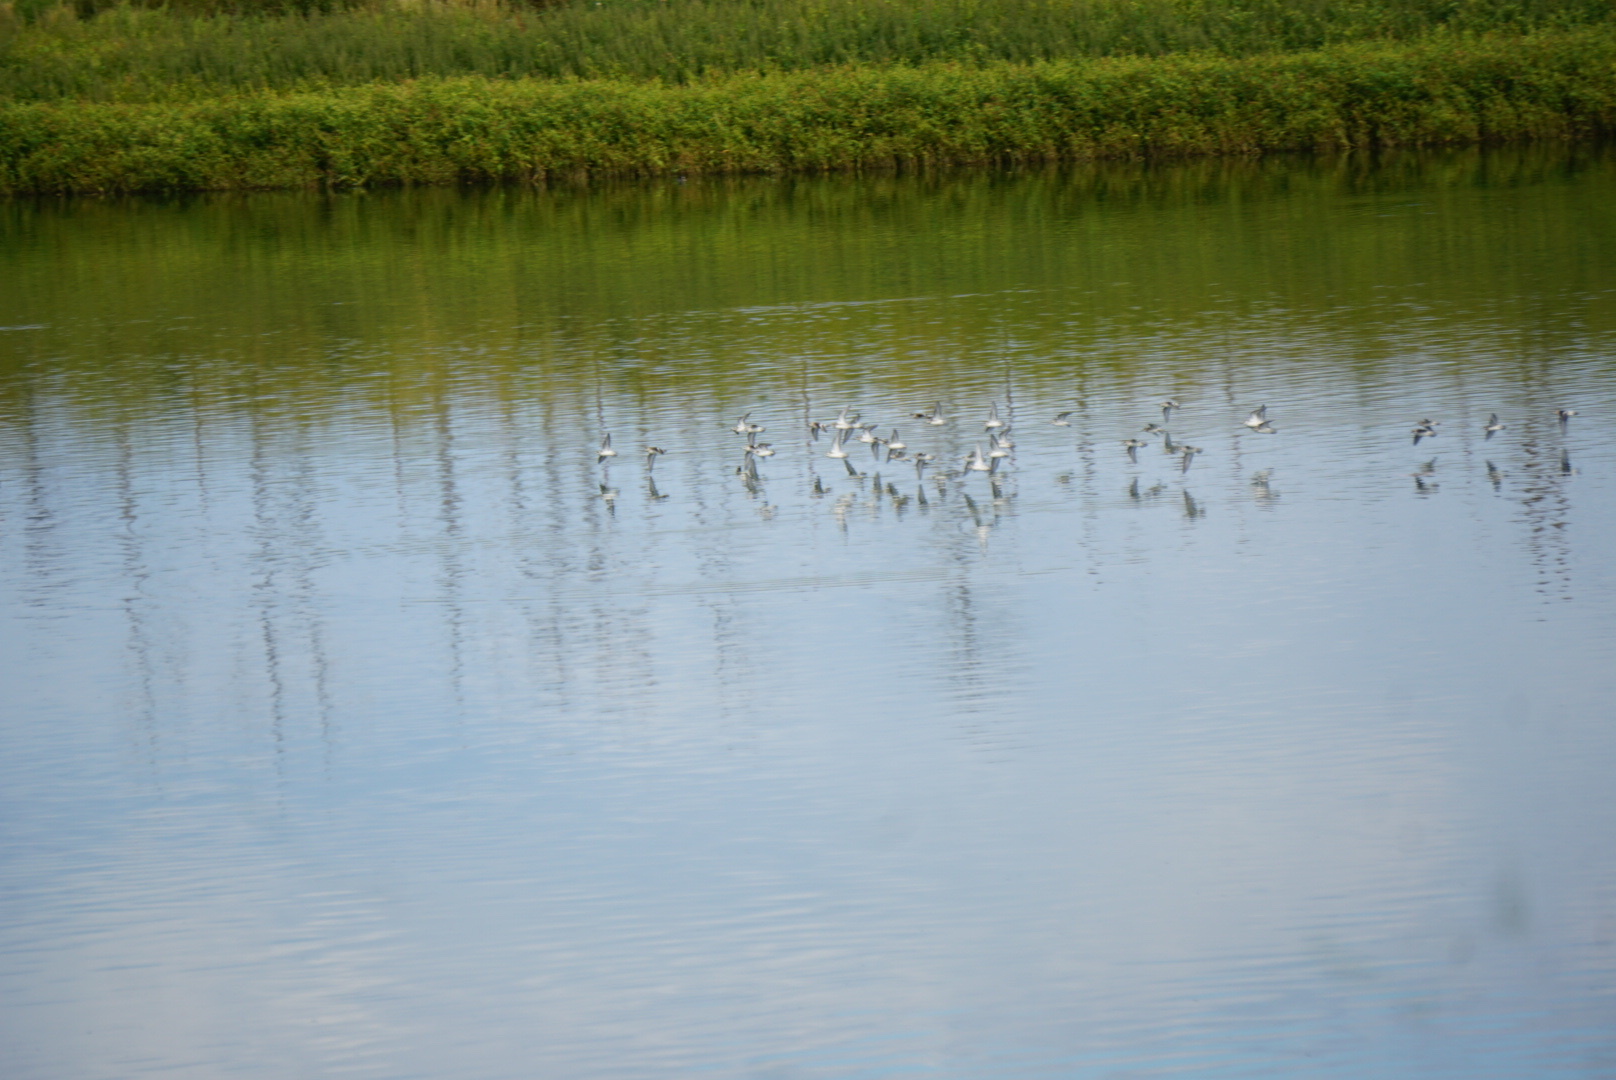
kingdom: Animalia
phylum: Chordata
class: Aves
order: Charadriiformes
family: Scolopacidae
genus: Phalaropus
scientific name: Phalaropus lobatus
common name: Red-necked phalarope
